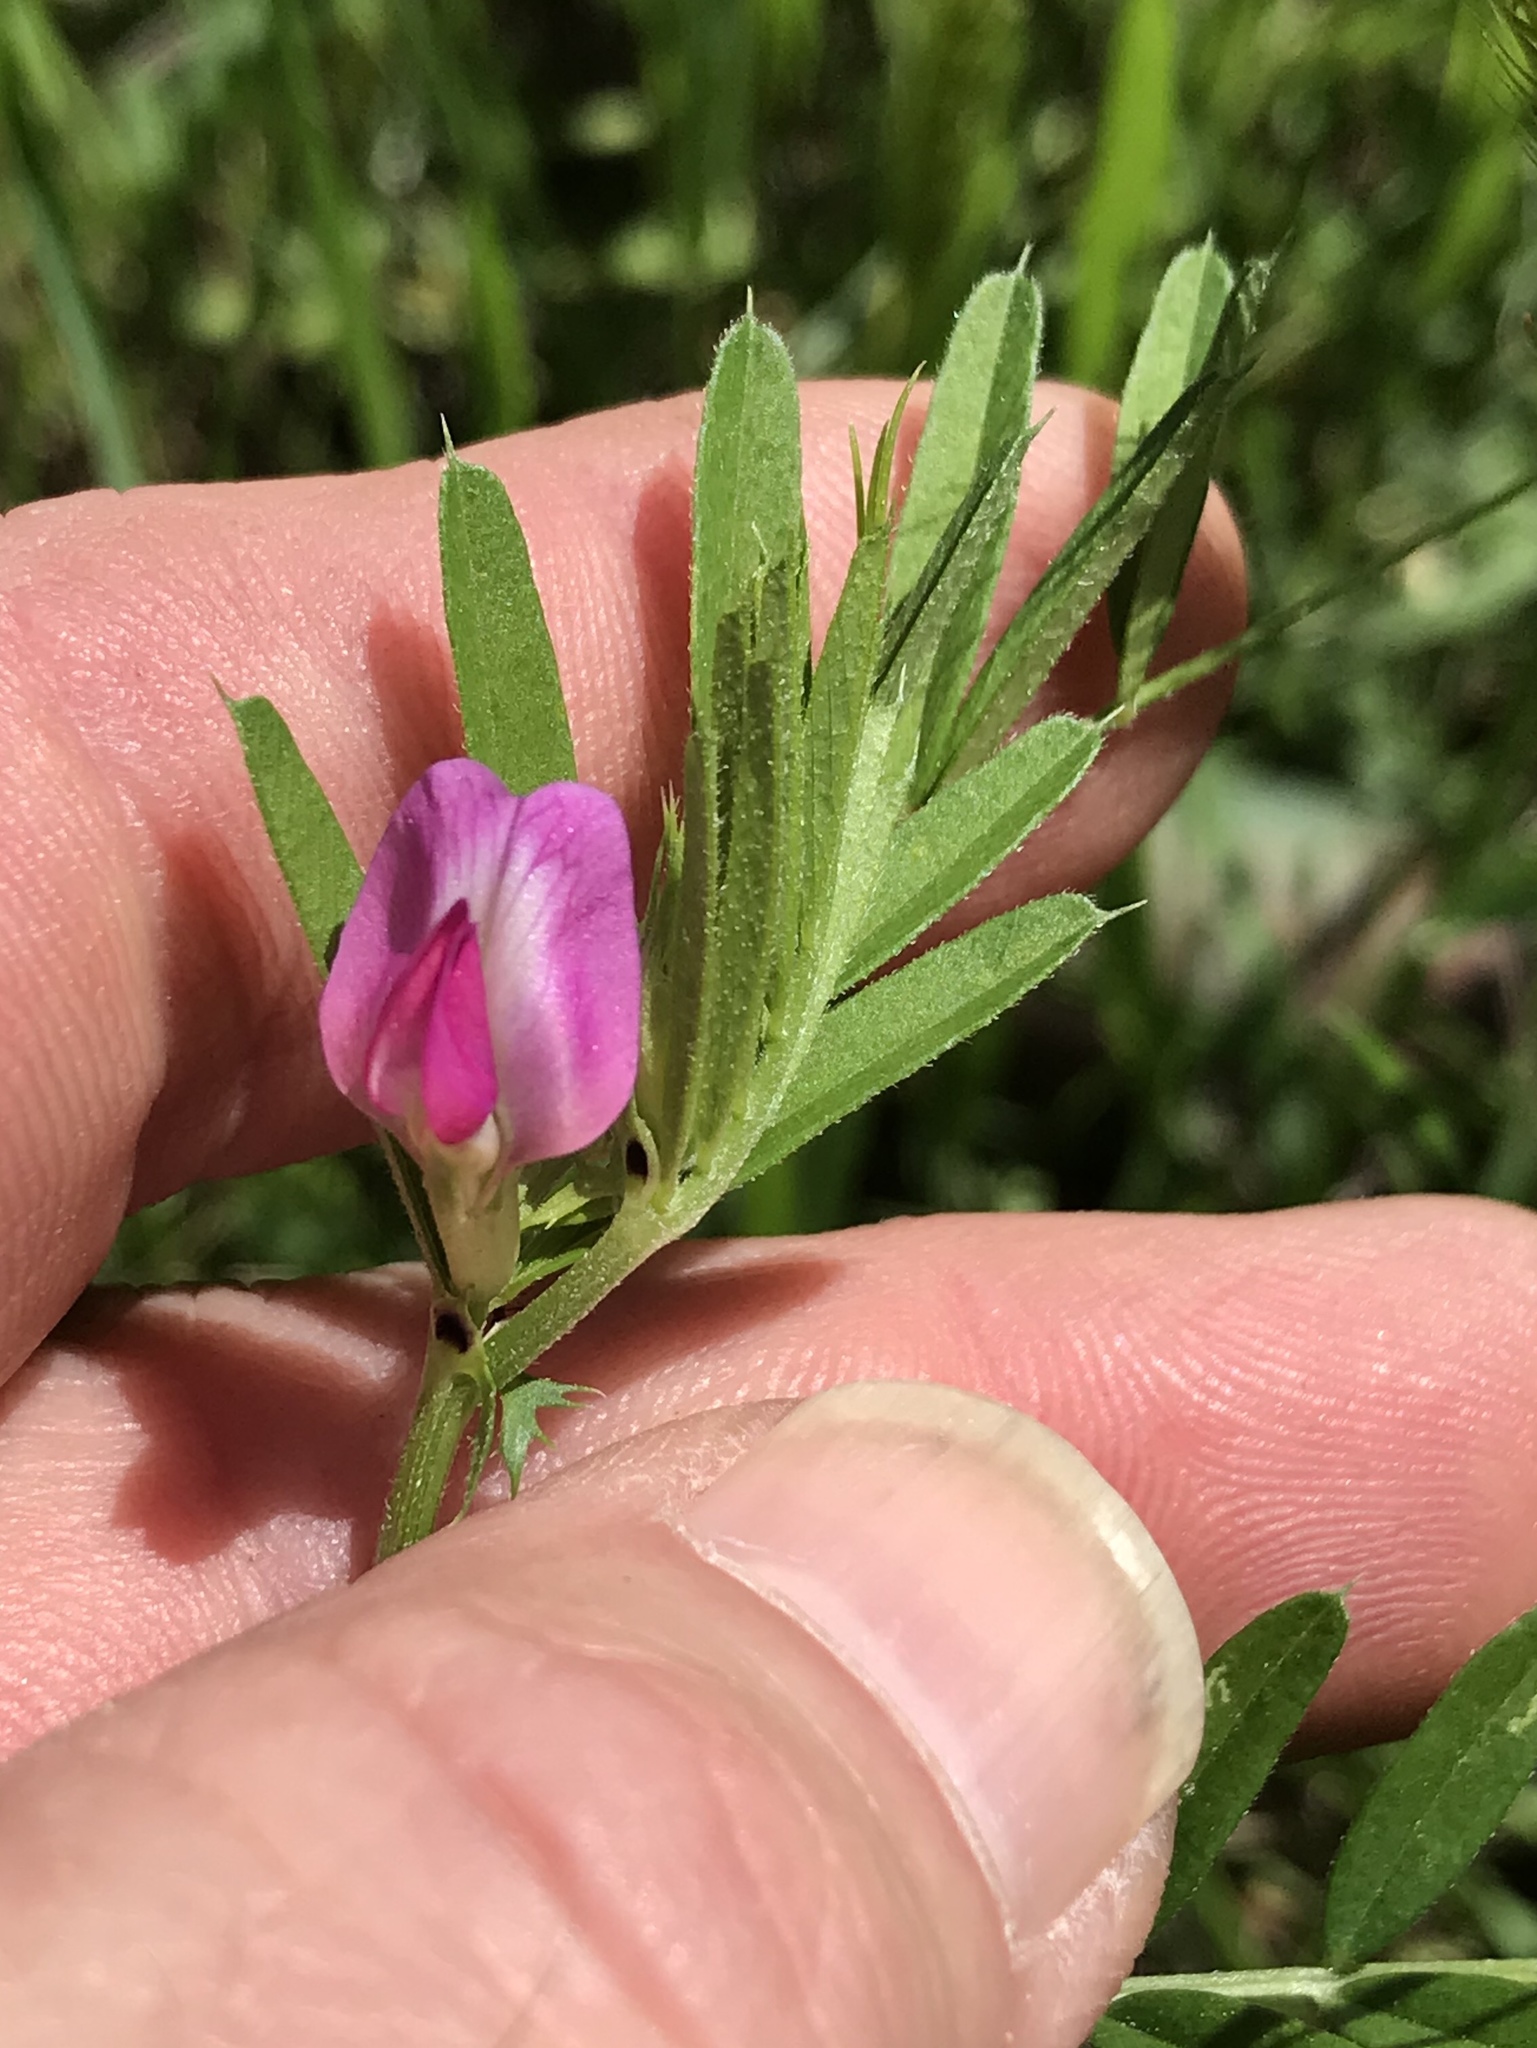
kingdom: Plantae
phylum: Tracheophyta
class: Magnoliopsida
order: Fabales
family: Fabaceae
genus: Vicia
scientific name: Vicia sativa
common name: Garden vetch
